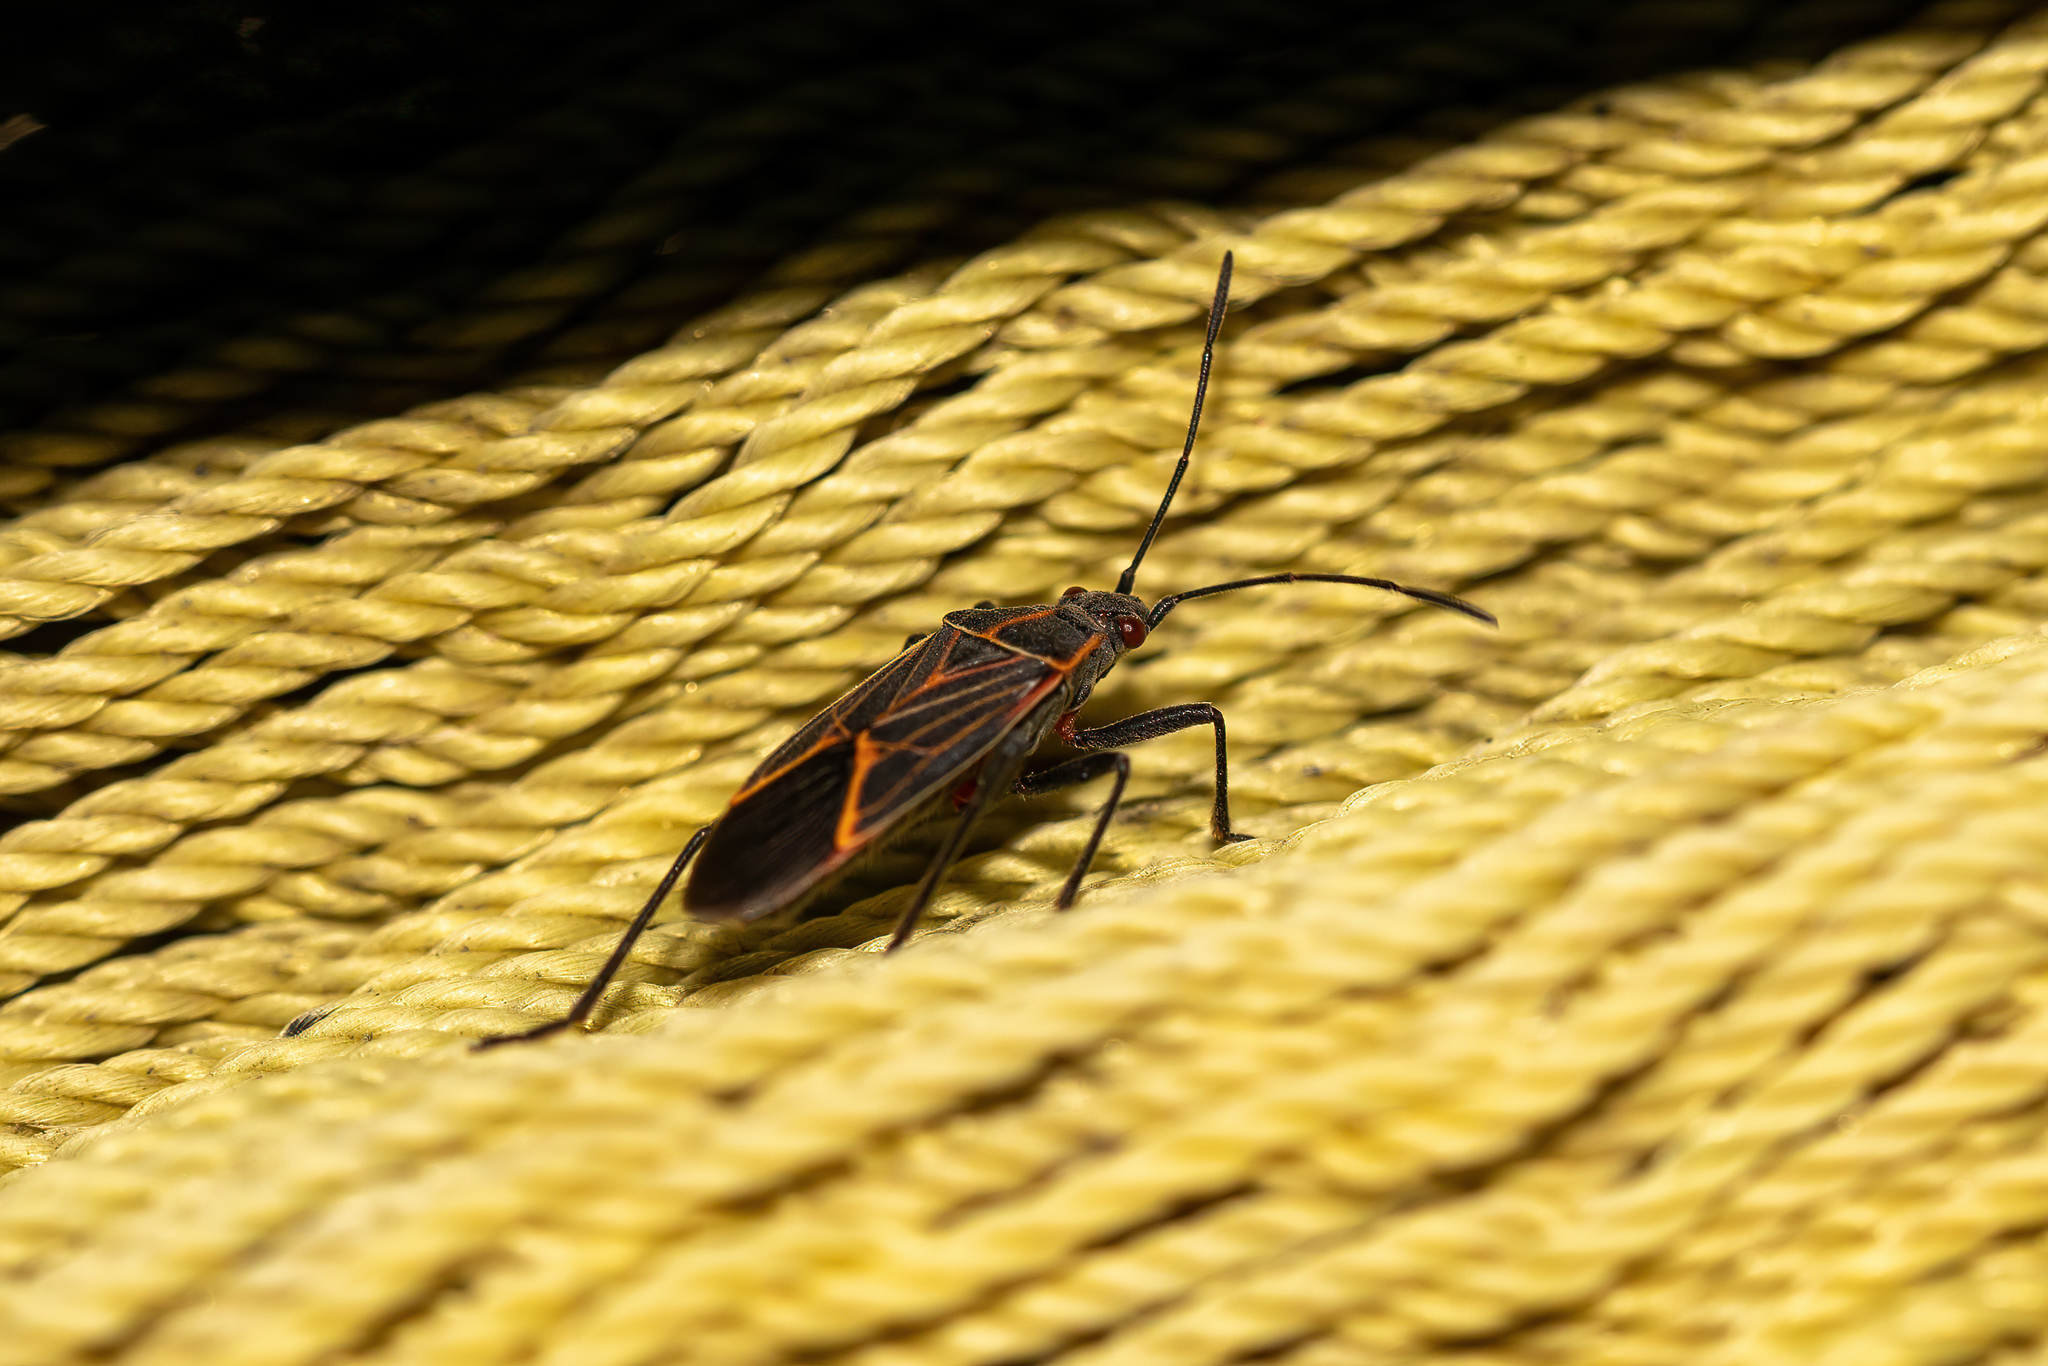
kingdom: Animalia
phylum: Arthropoda
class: Insecta
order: Hemiptera
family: Rhopalidae
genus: Boisea
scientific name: Boisea rubrolineata
